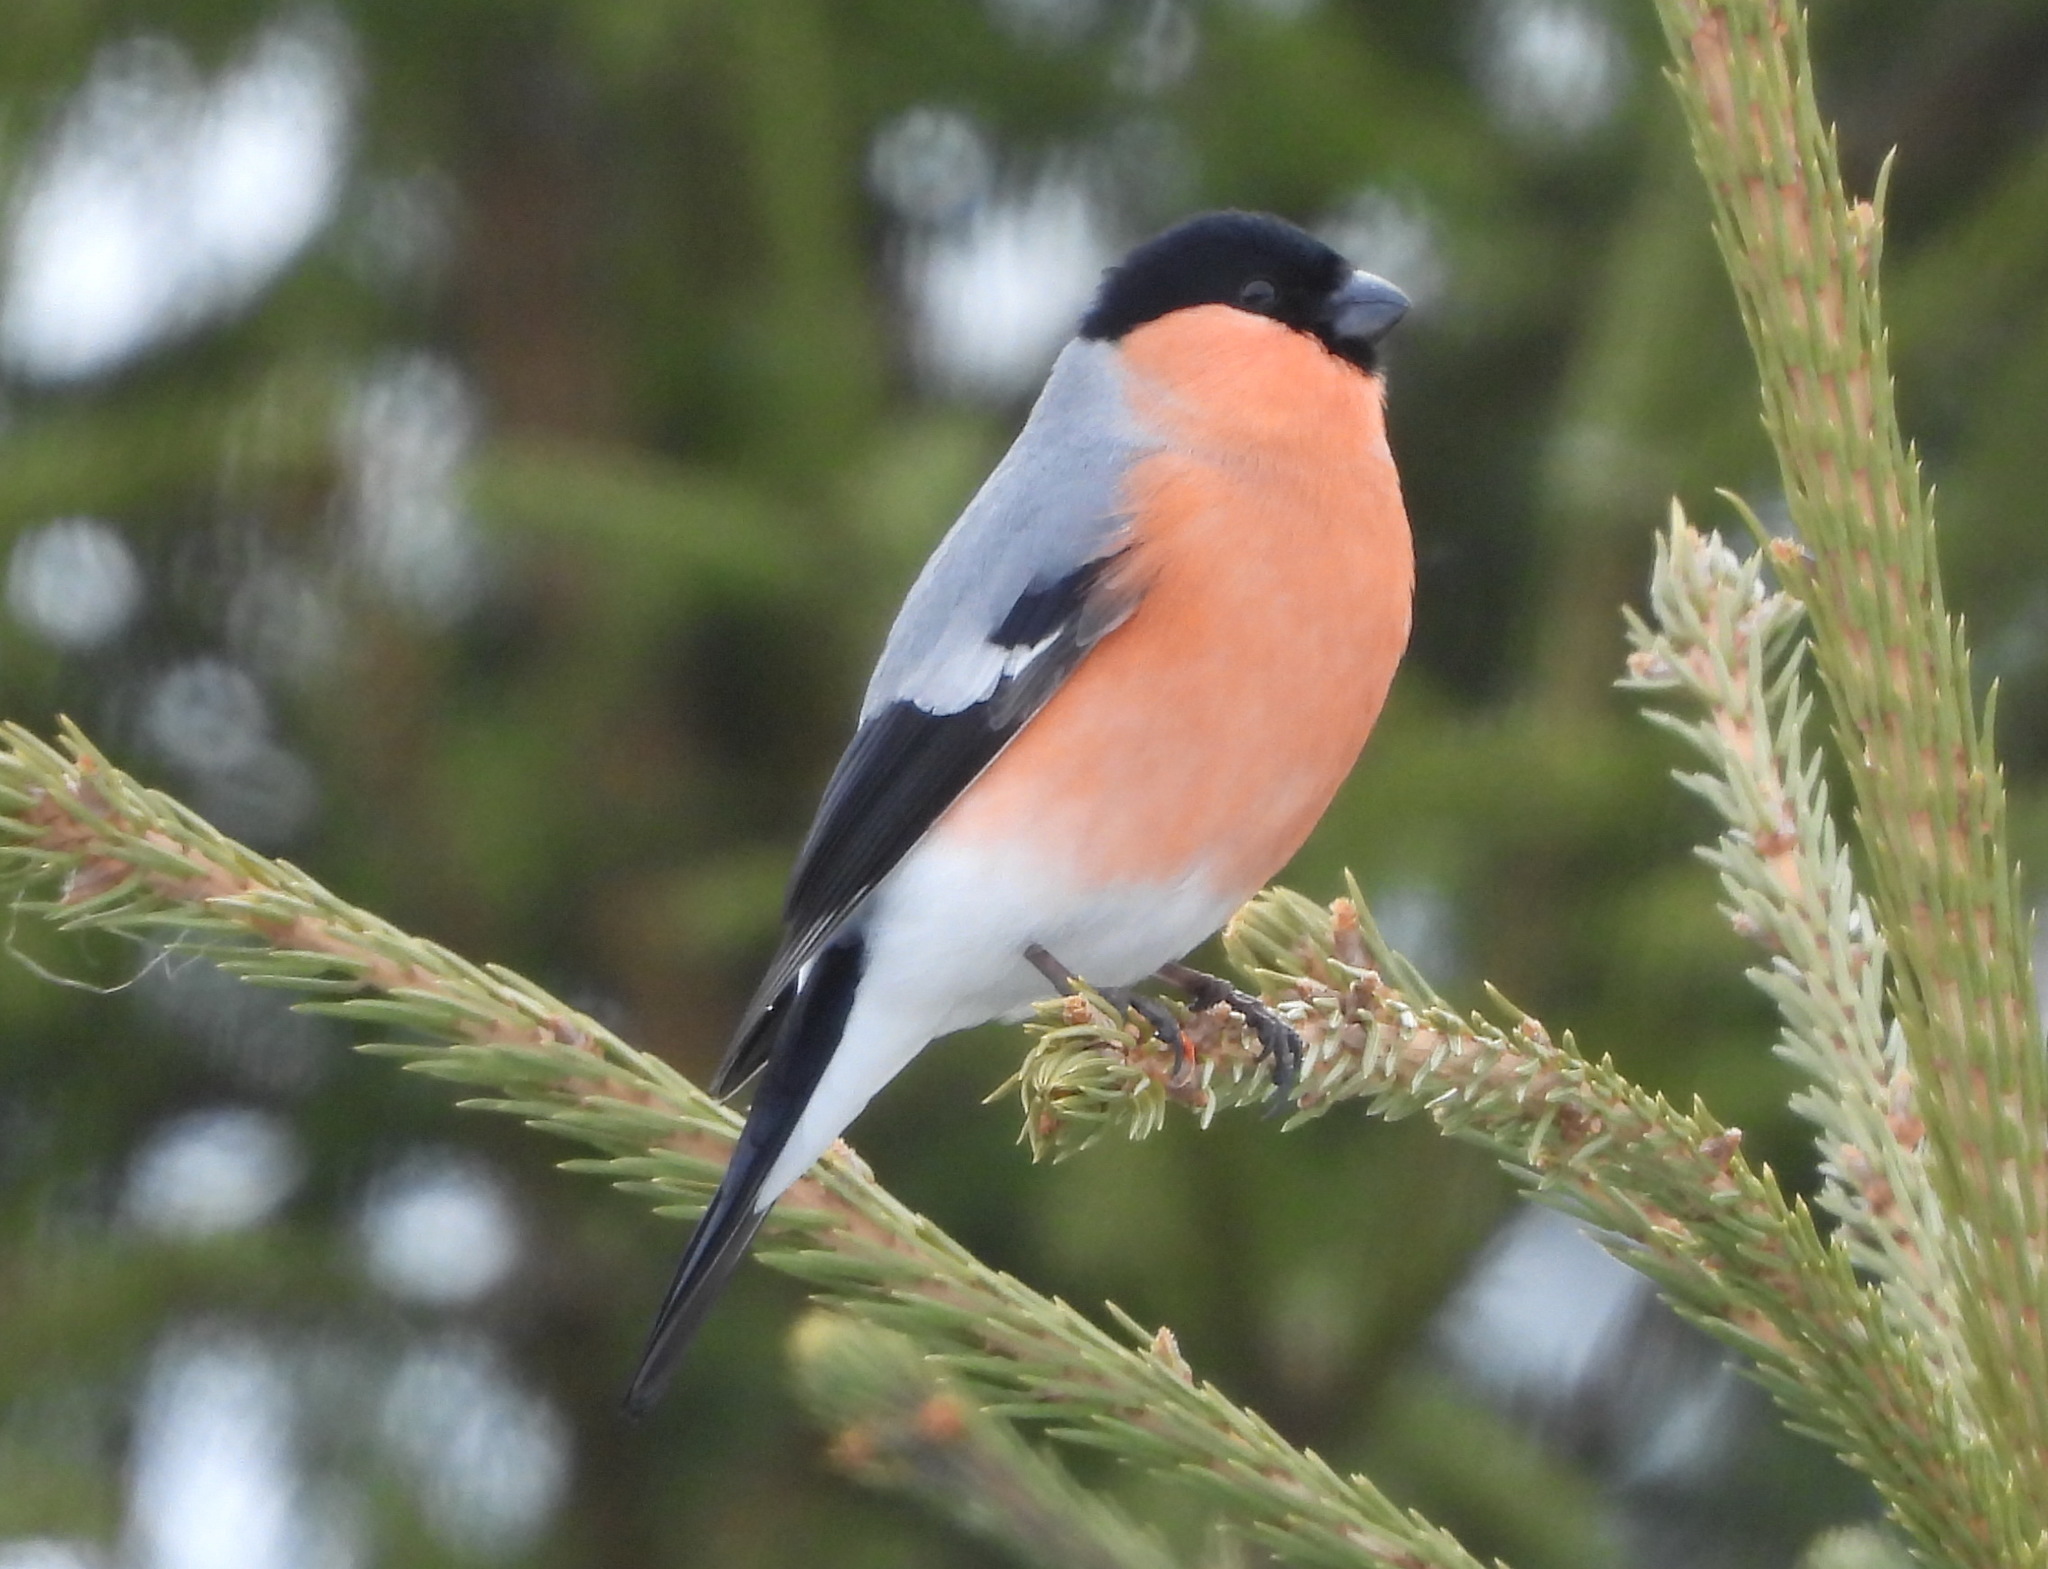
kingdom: Animalia
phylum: Chordata
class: Aves
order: Passeriformes
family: Fringillidae
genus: Pyrrhula
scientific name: Pyrrhula pyrrhula
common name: Eurasian bullfinch
